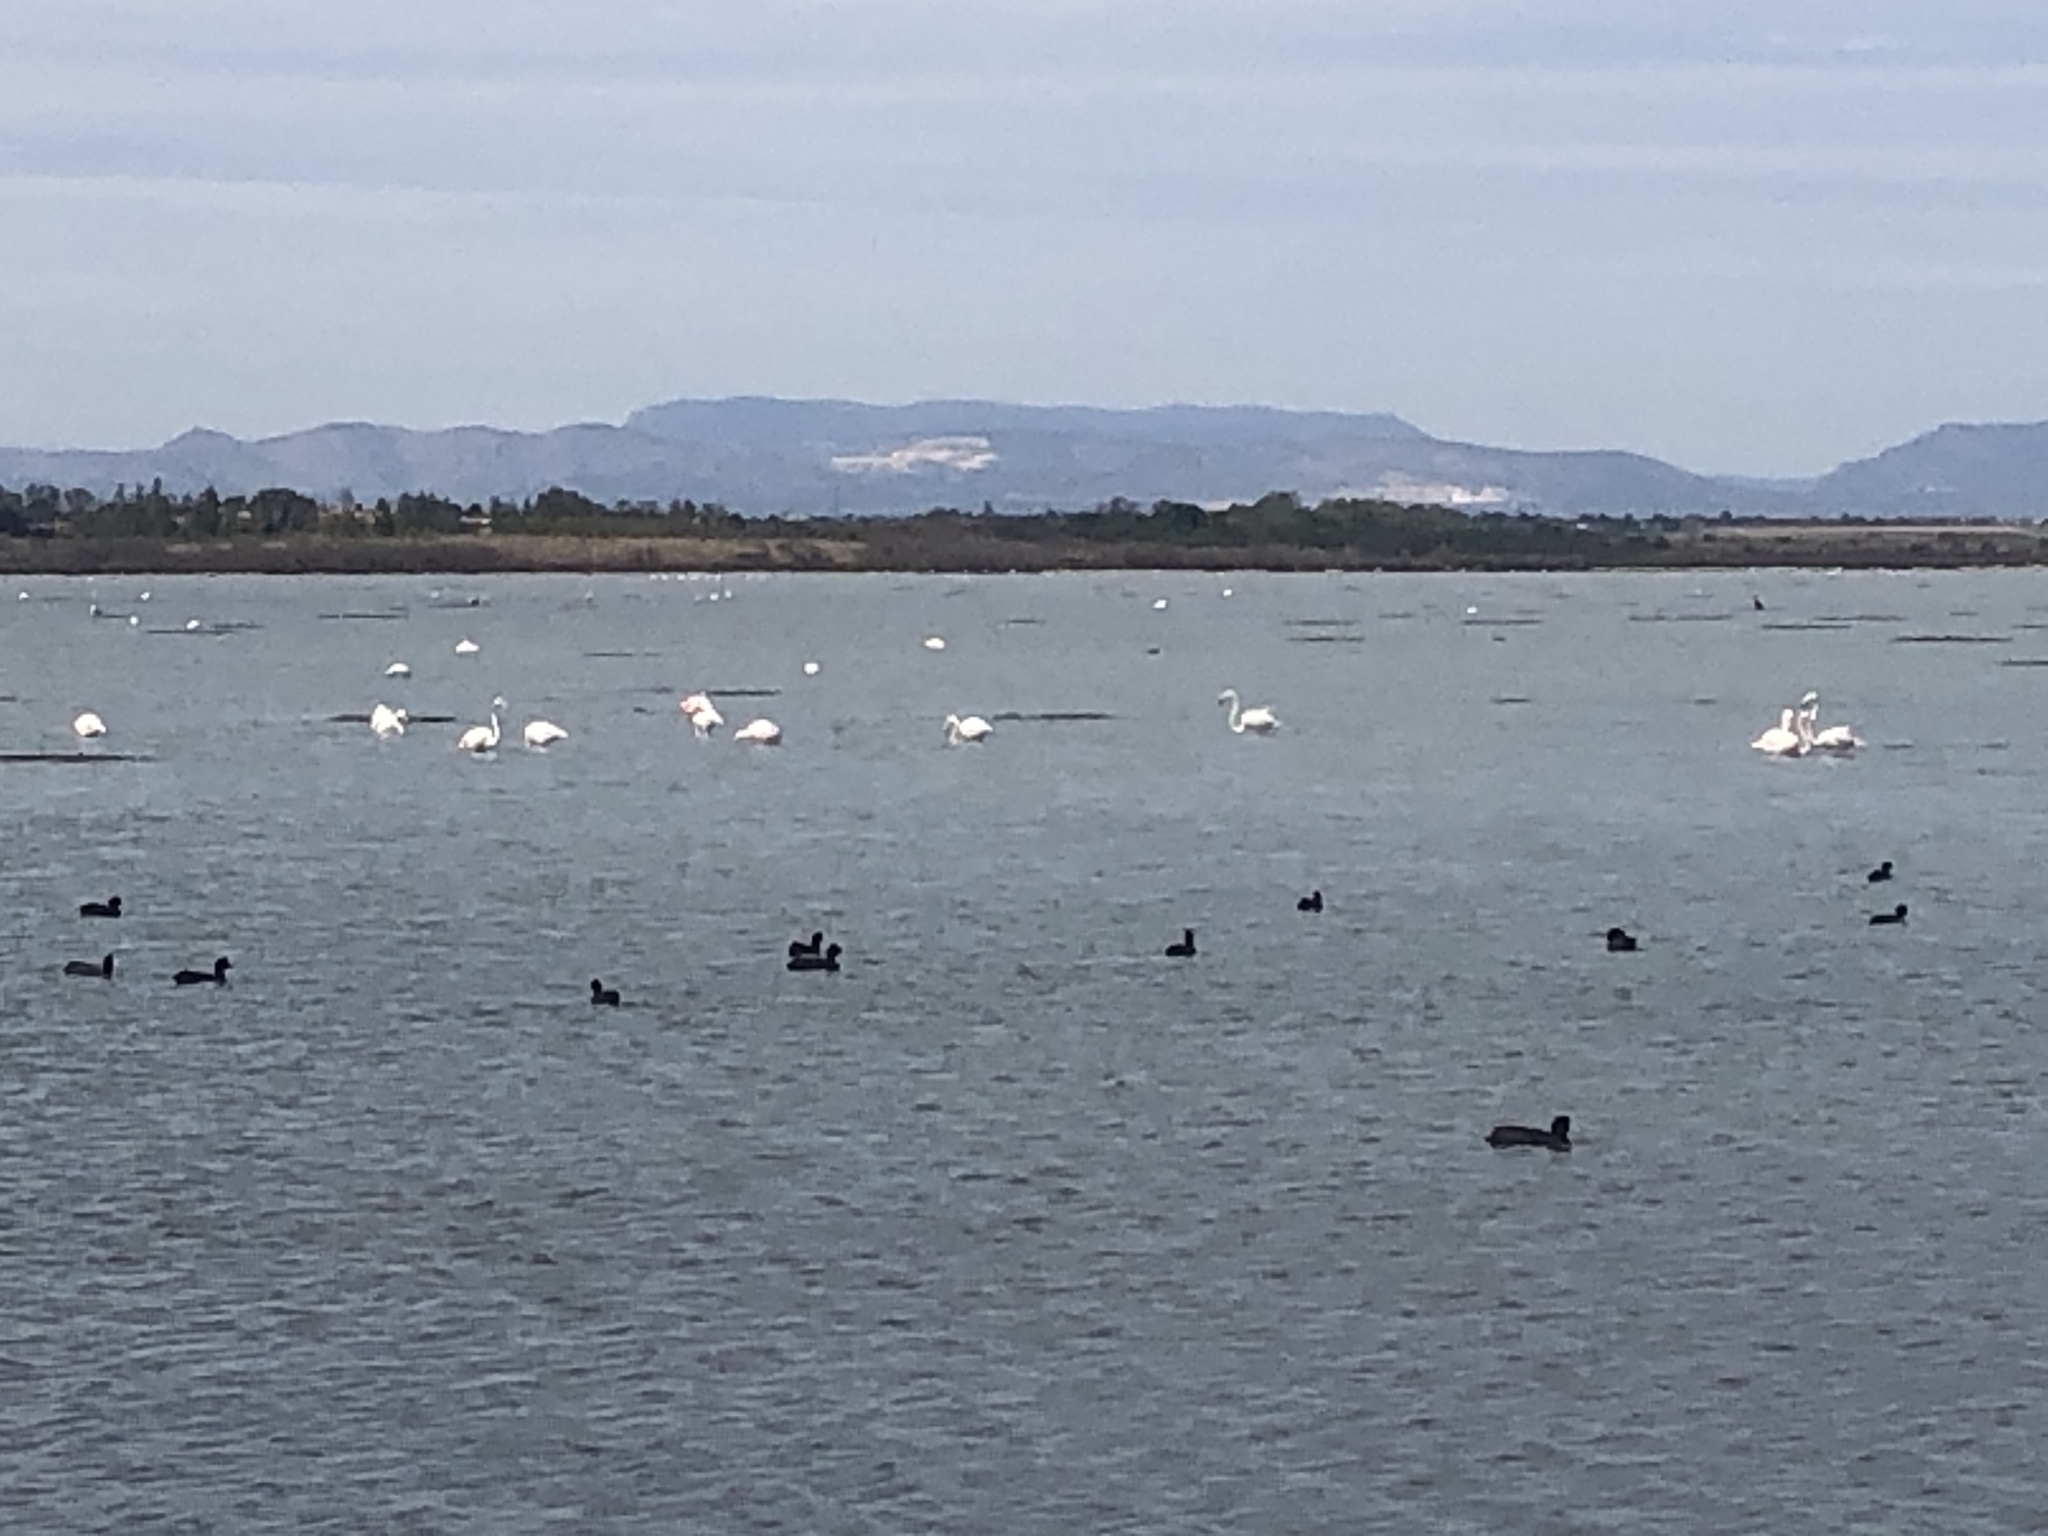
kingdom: Animalia
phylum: Chordata
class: Aves
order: Phoenicopteriformes
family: Phoenicopteridae
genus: Phoenicopterus
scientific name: Phoenicopterus roseus
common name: Greater flamingo
